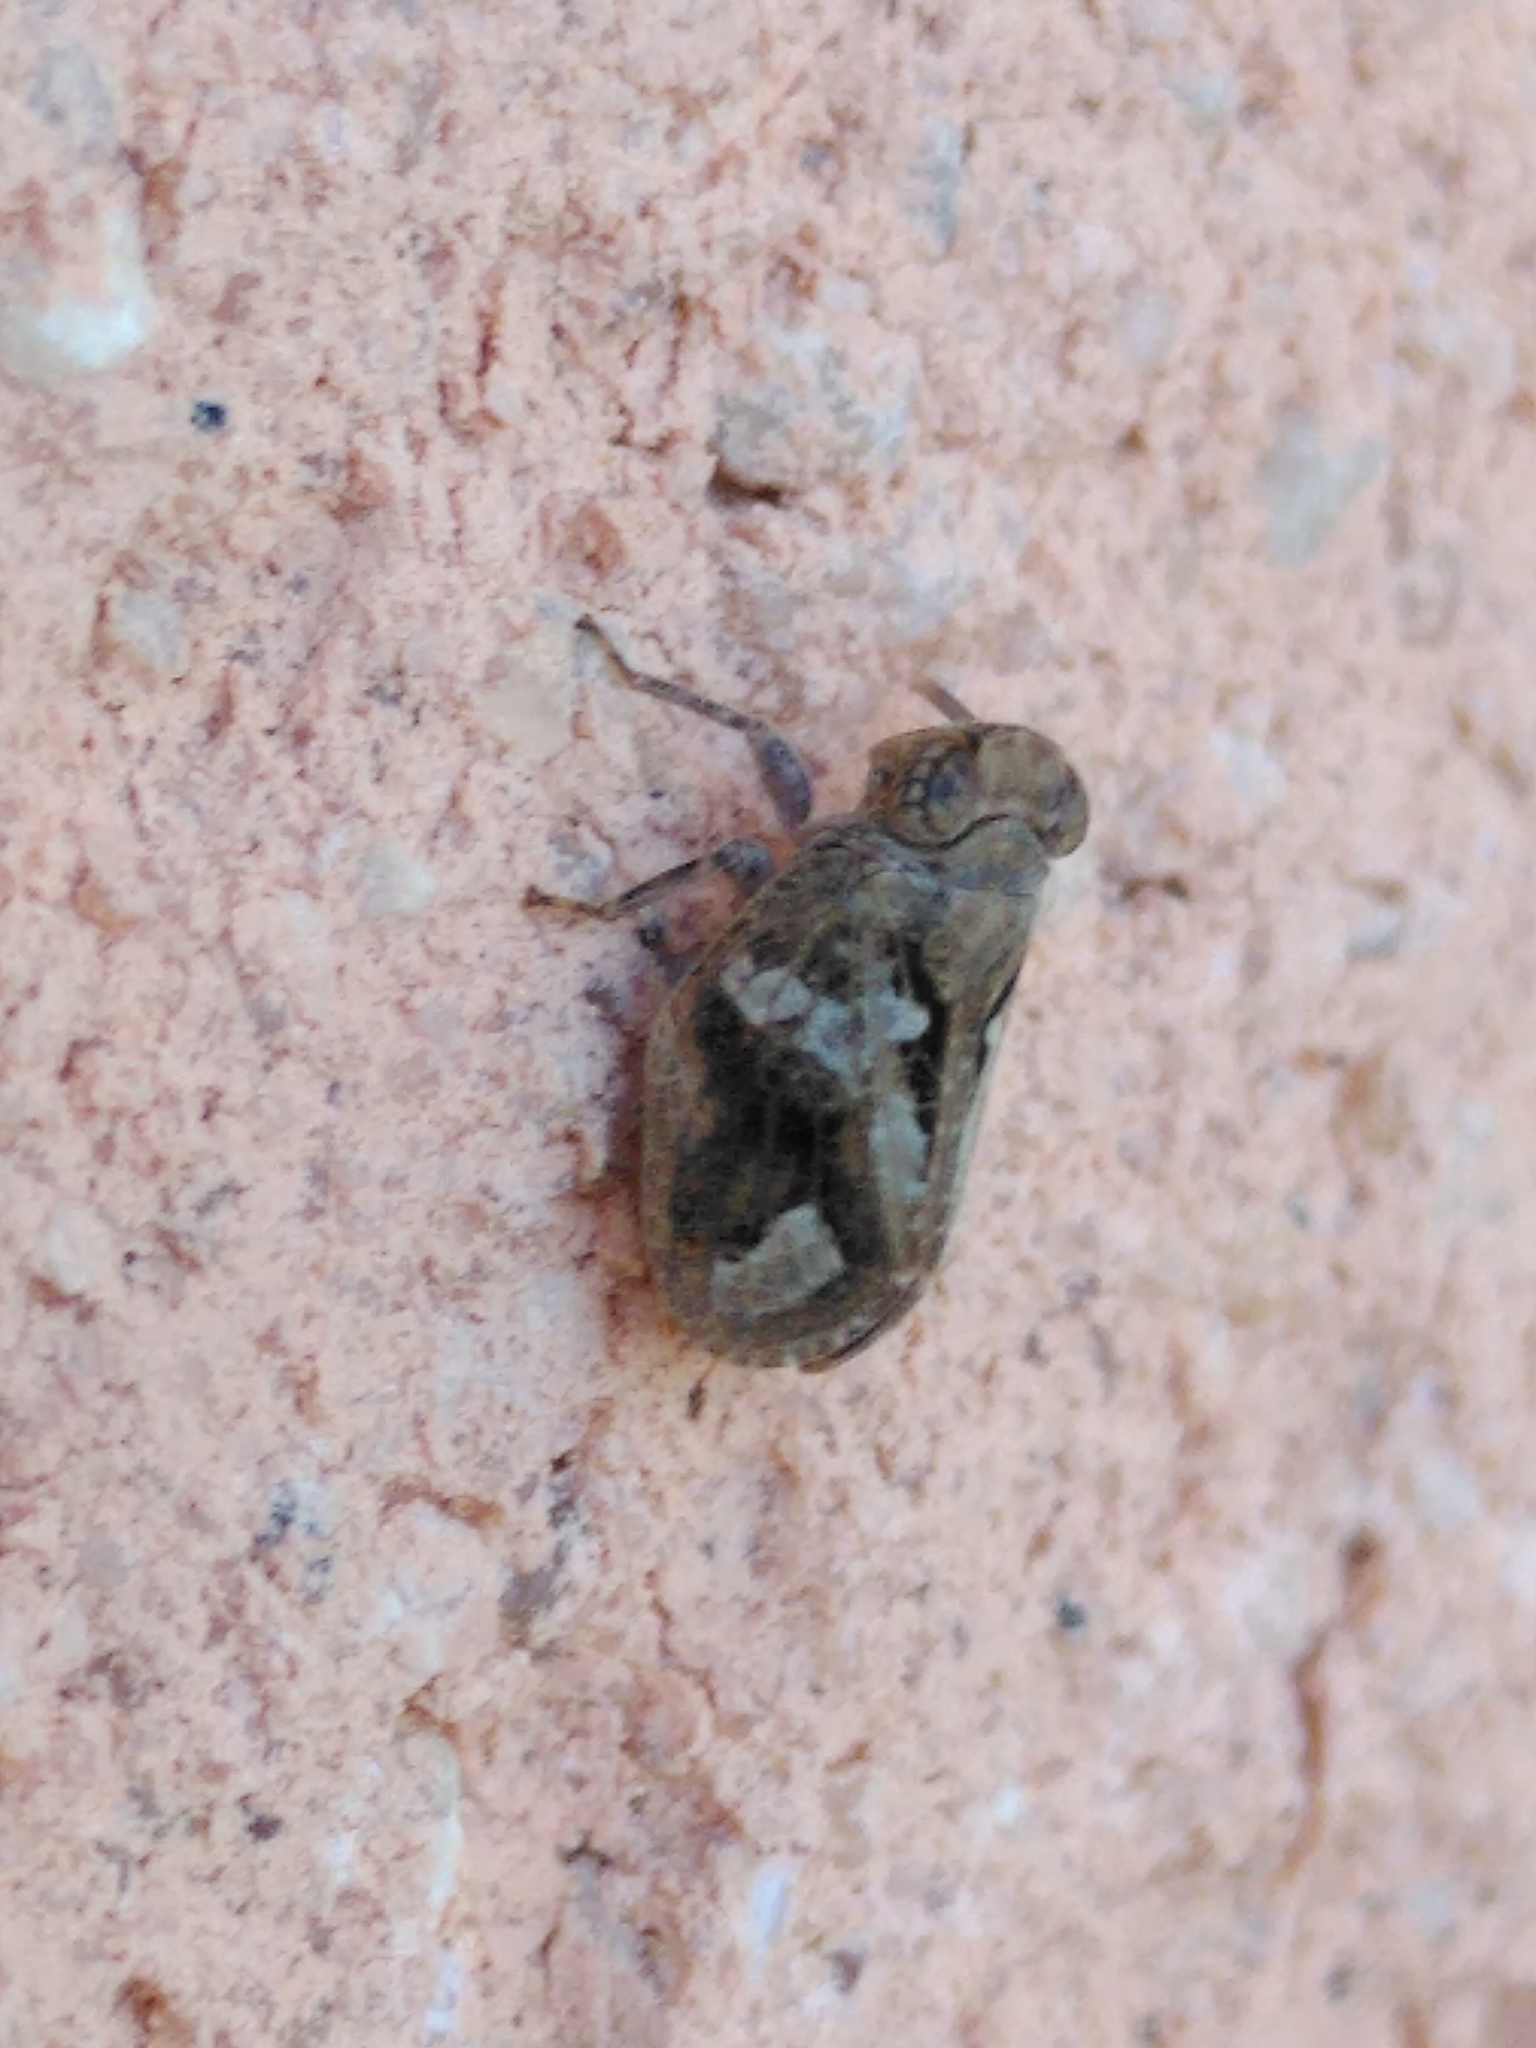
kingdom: Animalia
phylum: Arthropoda
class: Insecta
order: Hemiptera
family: Issidae
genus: Latilica
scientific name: Latilica maculipes
